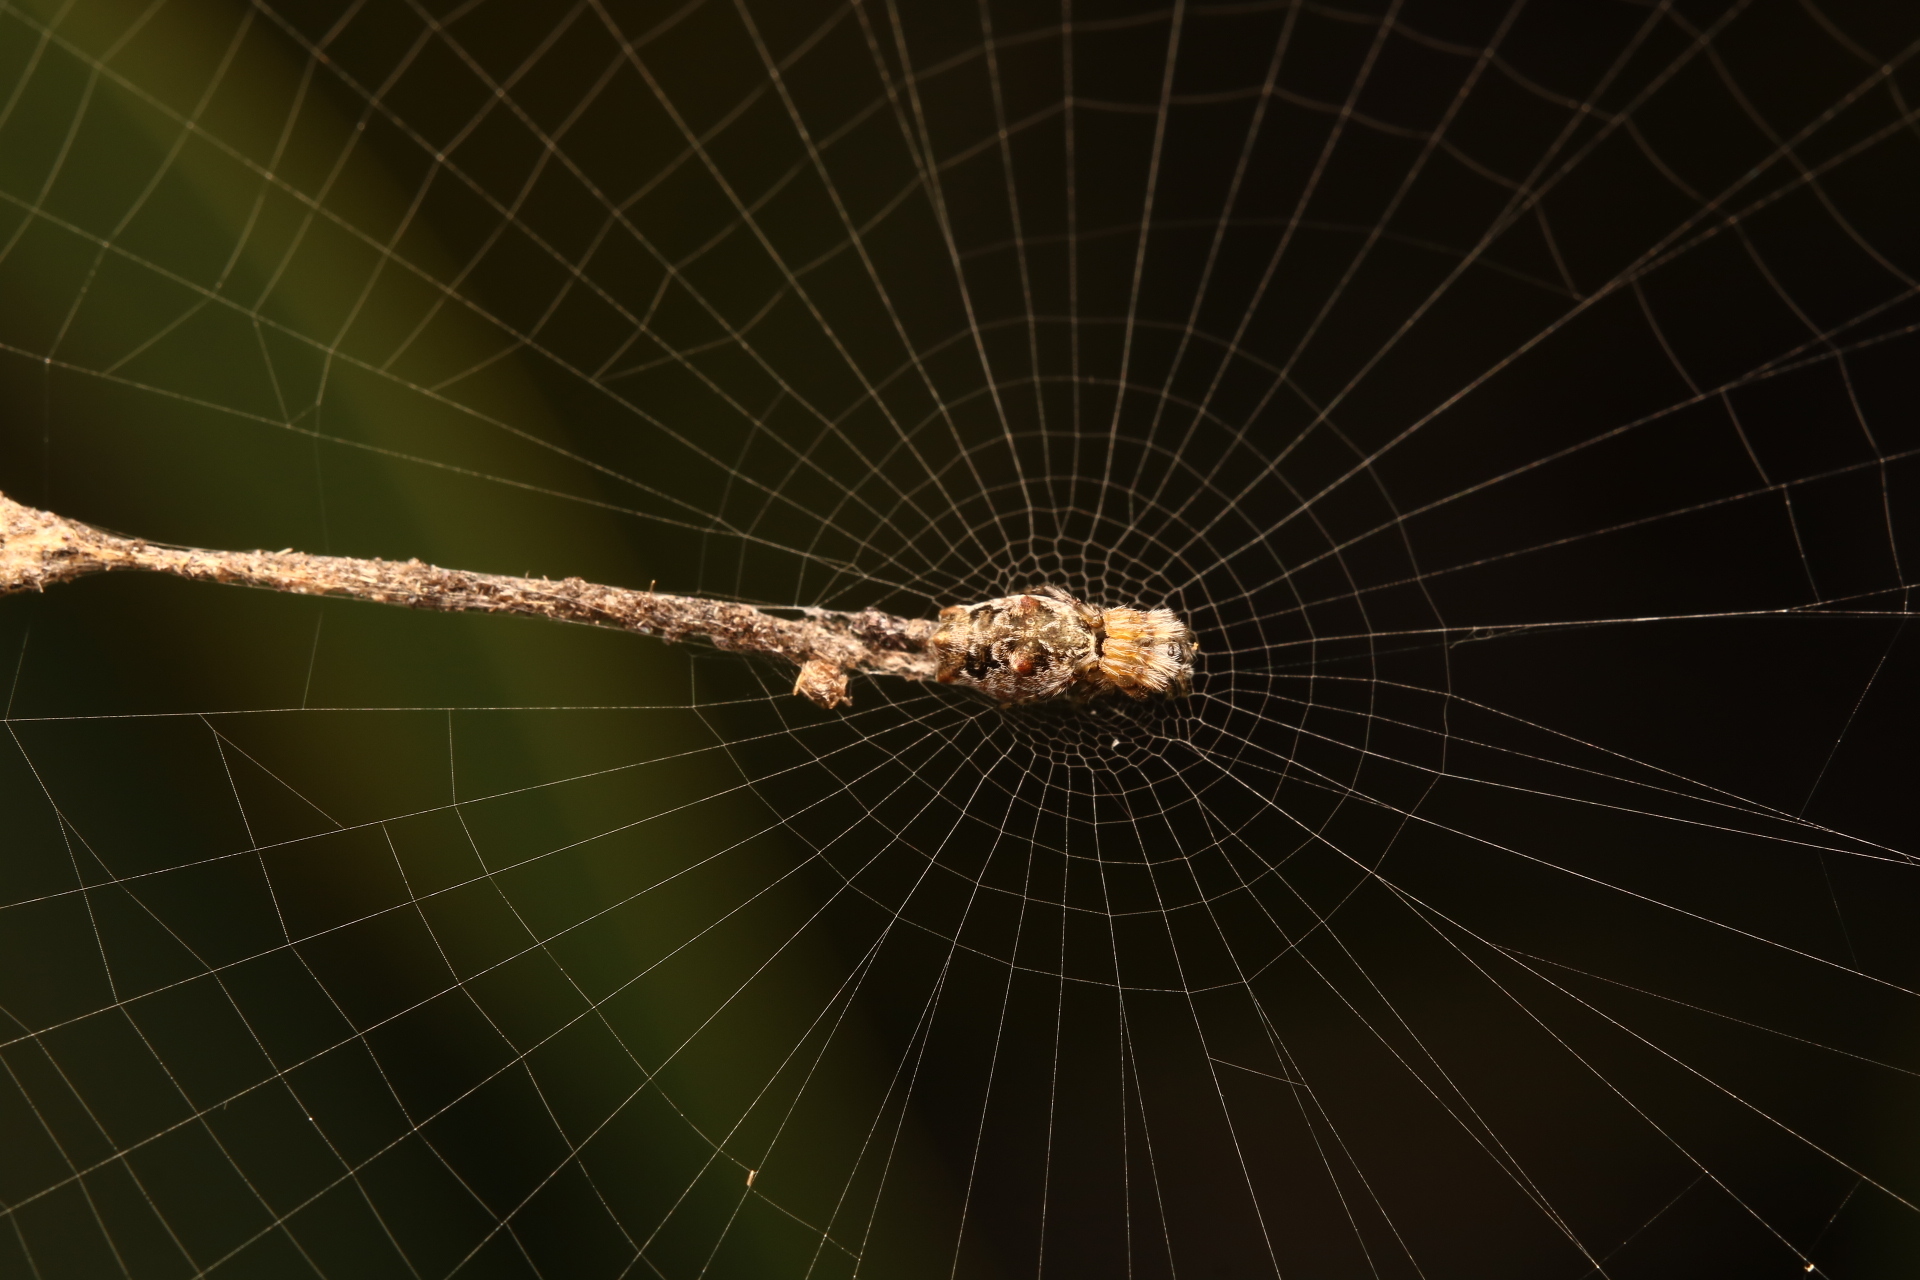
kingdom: Animalia
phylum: Arthropoda
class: Arachnida
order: Araneae
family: Araneidae
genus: Cyclosa
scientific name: Cyclosa walckenaeri
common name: Orb weavers
